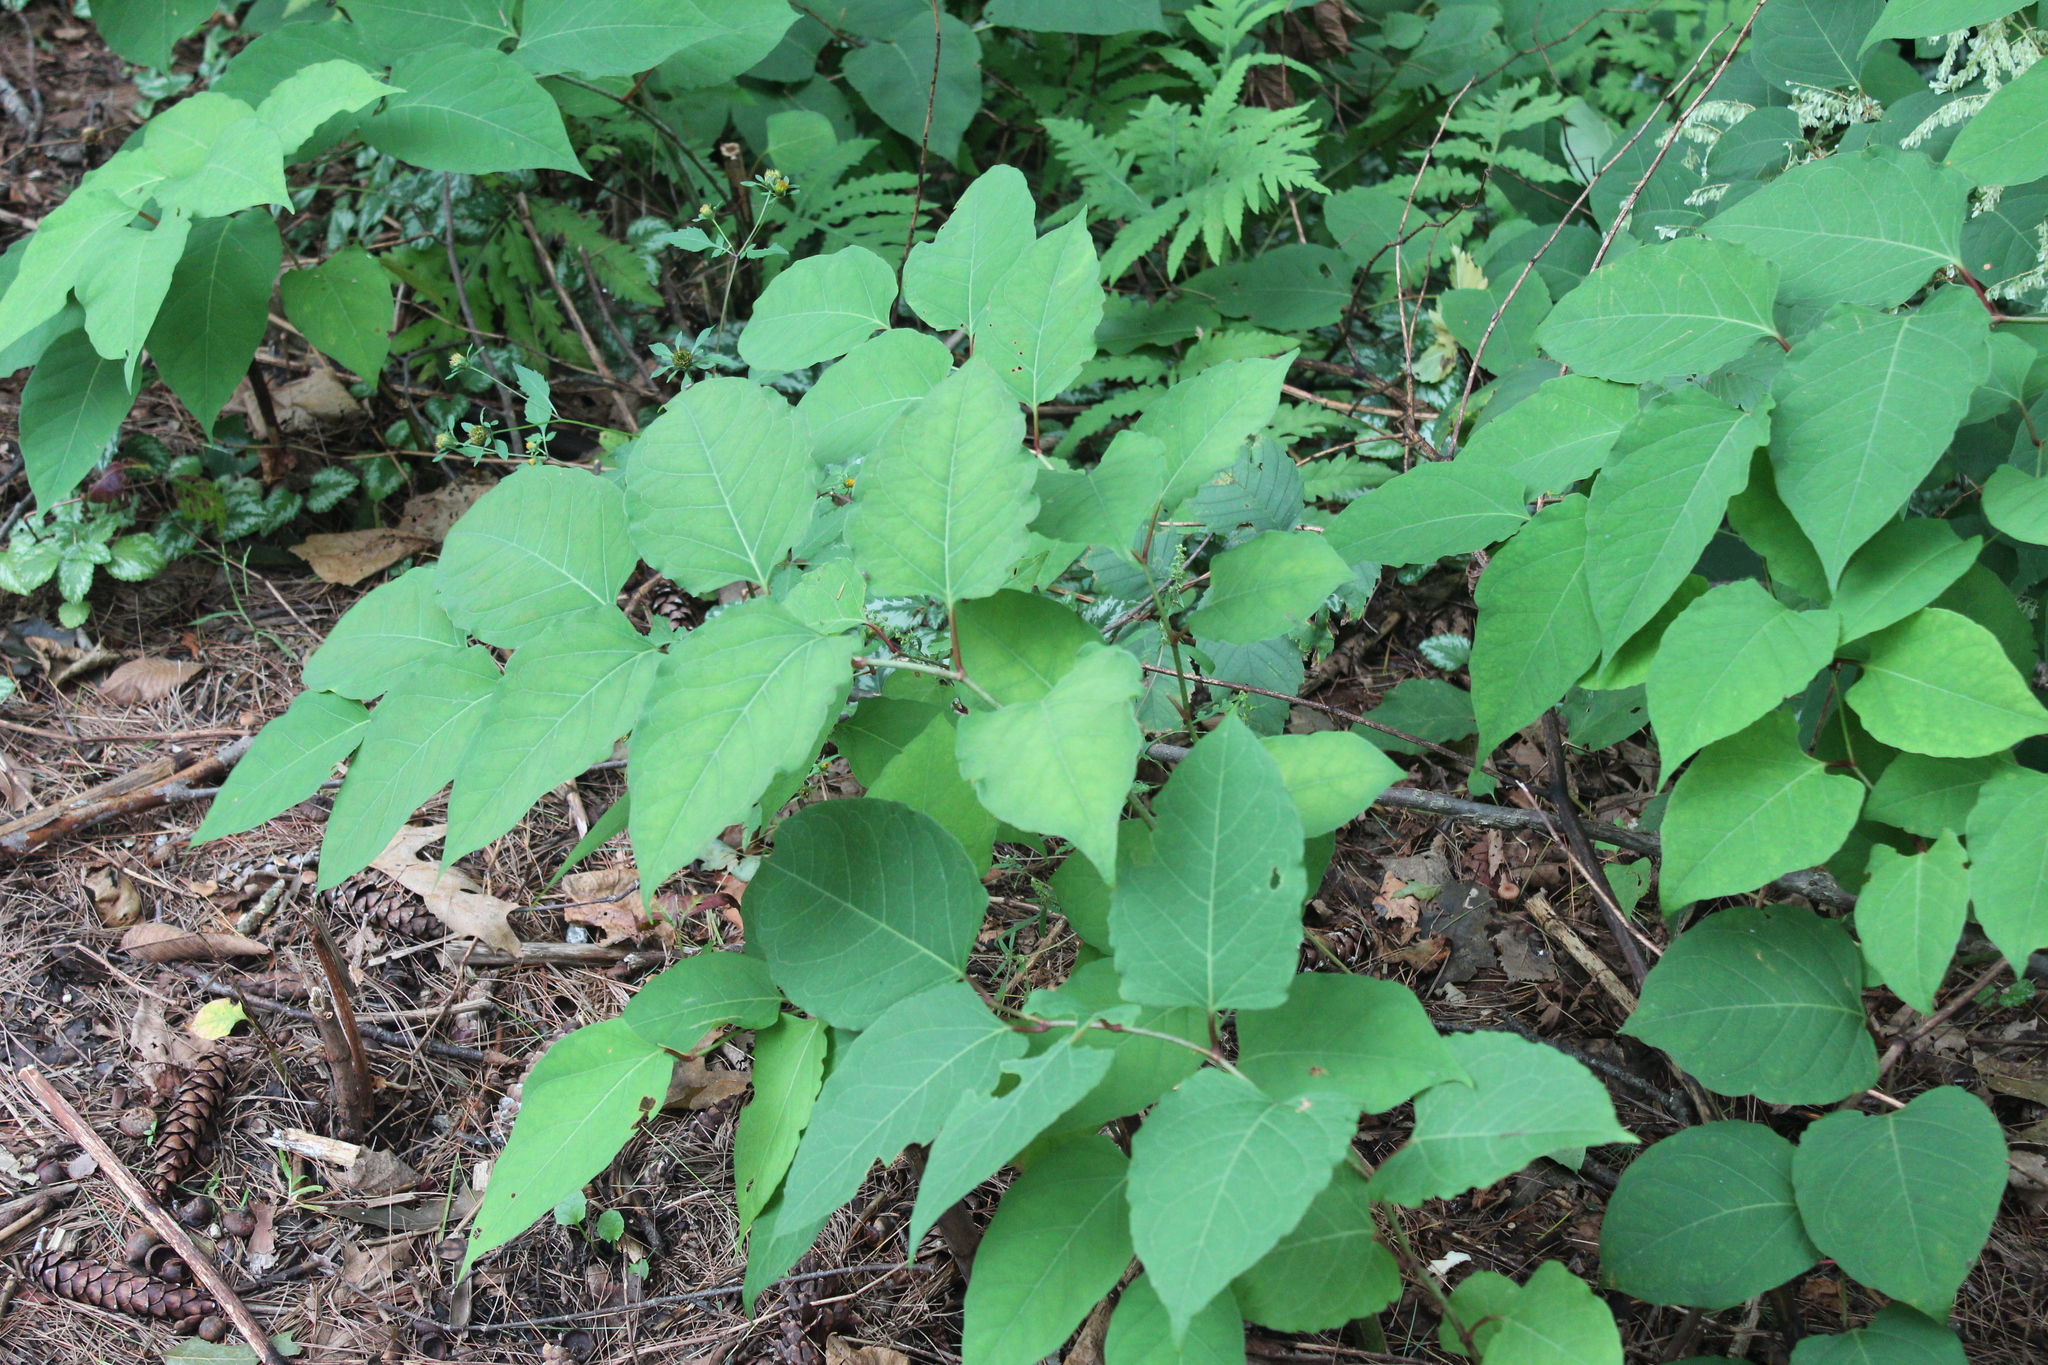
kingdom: Plantae
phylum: Tracheophyta
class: Magnoliopsida
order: Caryophyllales
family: Polygonaceae
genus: Reynoutria
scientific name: Reynoutria japonica
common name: Japanese knotweed
